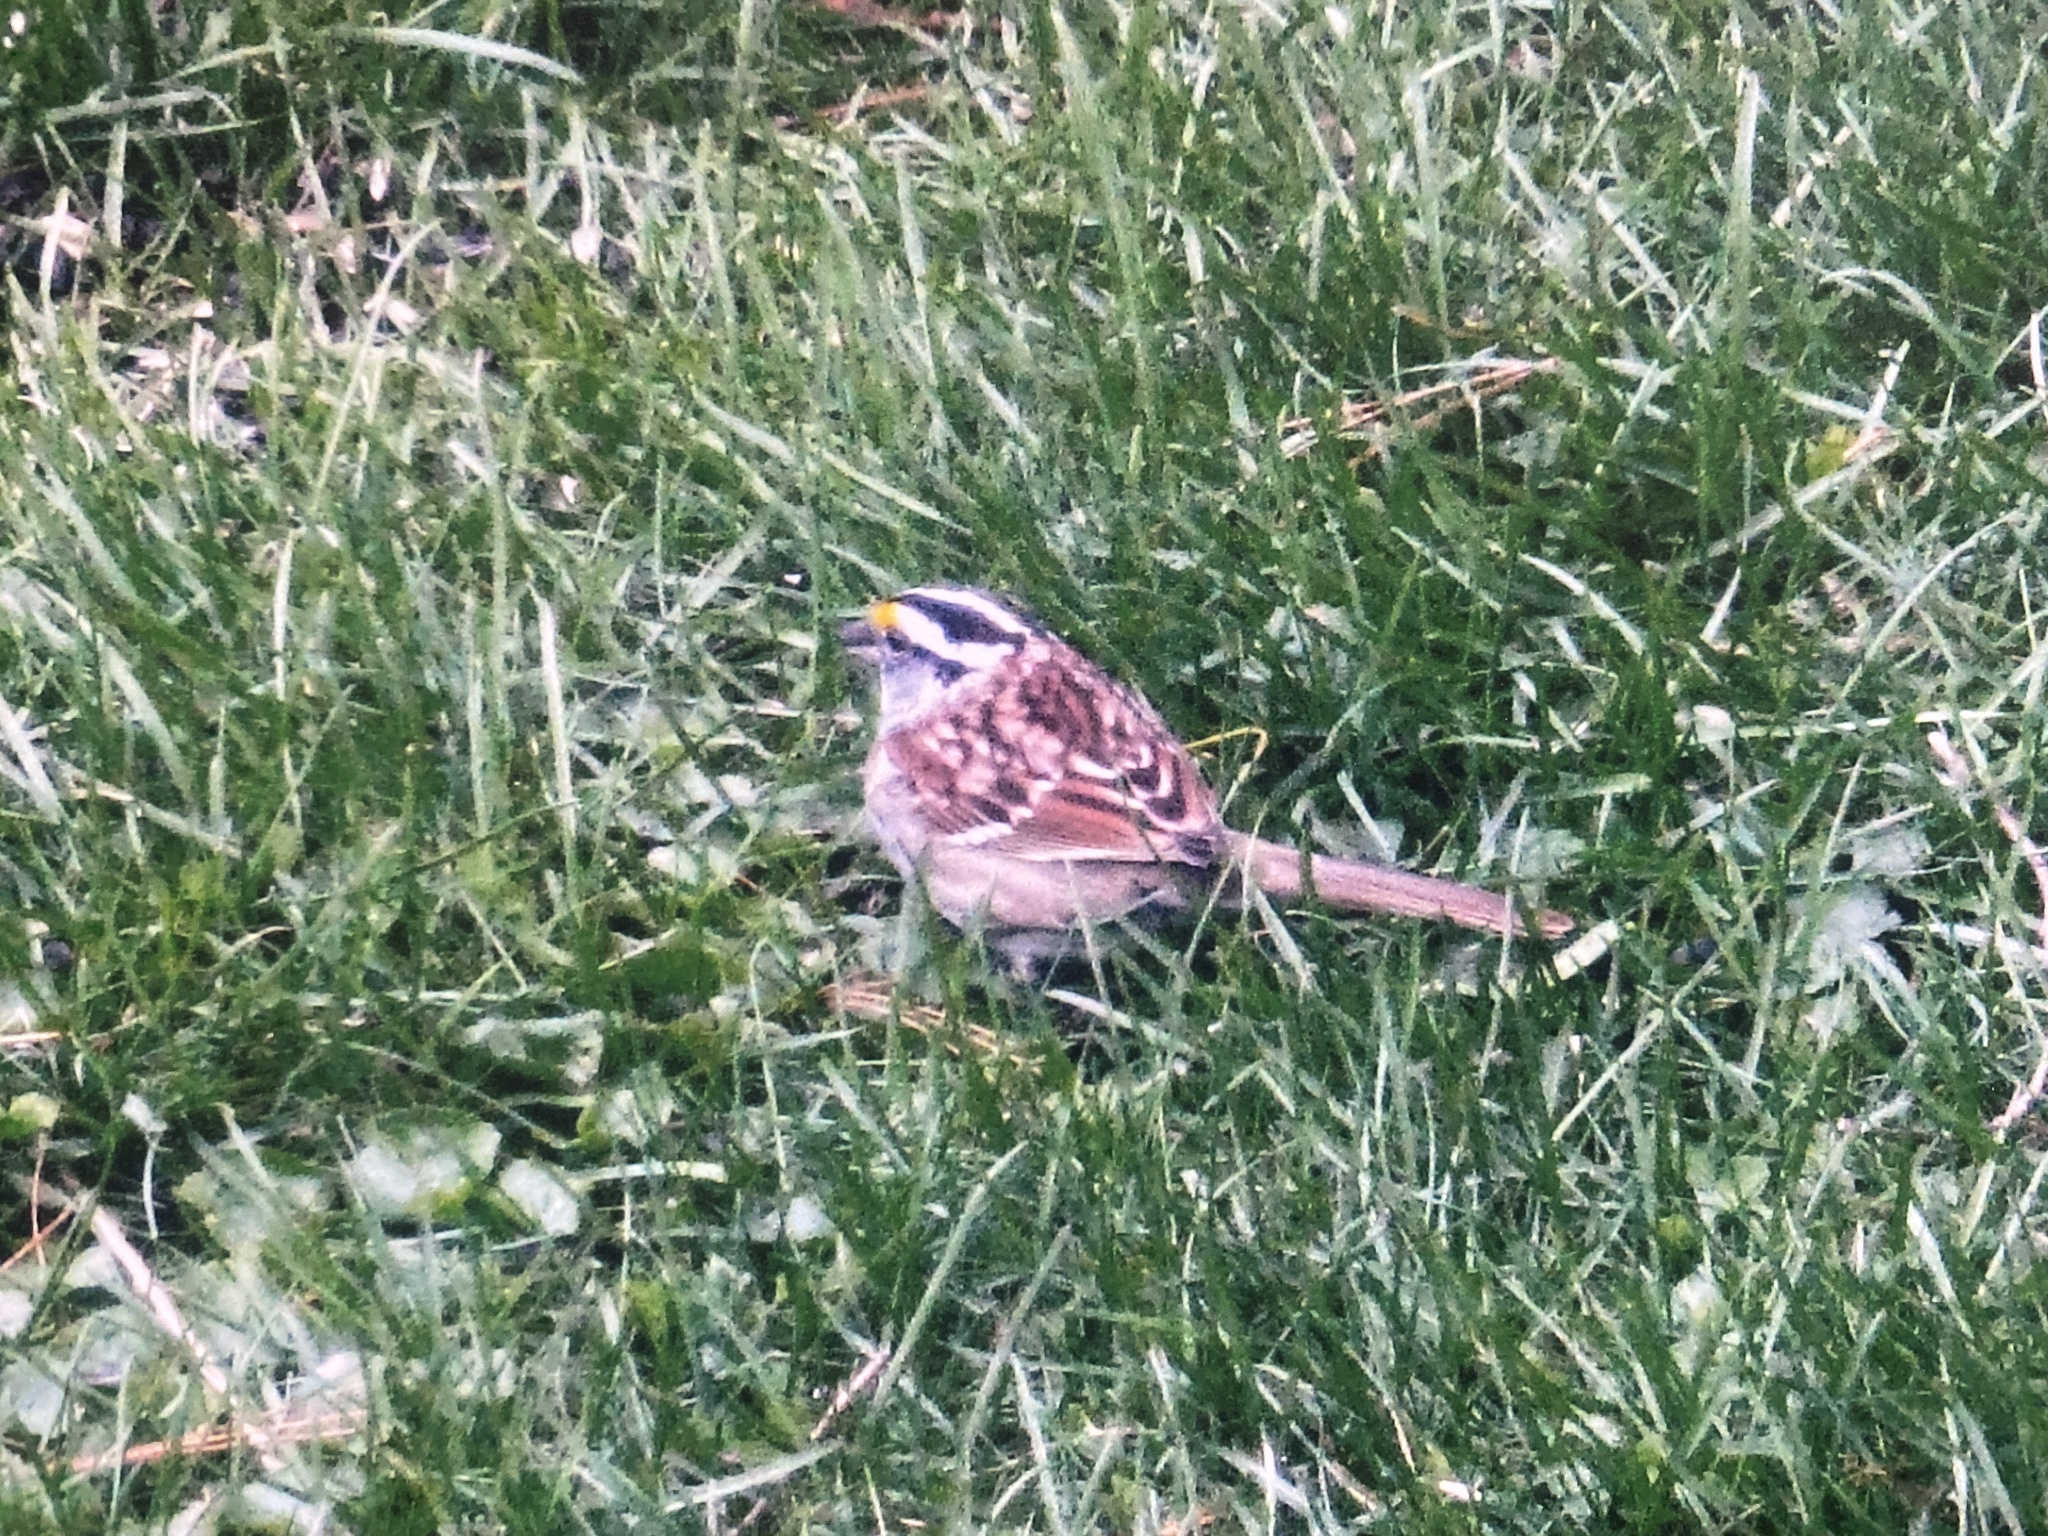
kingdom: Animalia
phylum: Chordata
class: Aves
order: Passeriformes
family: Passerellidae
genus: Zonotrichia
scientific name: Zonotrichia albicollis
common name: White-throated sparrow
